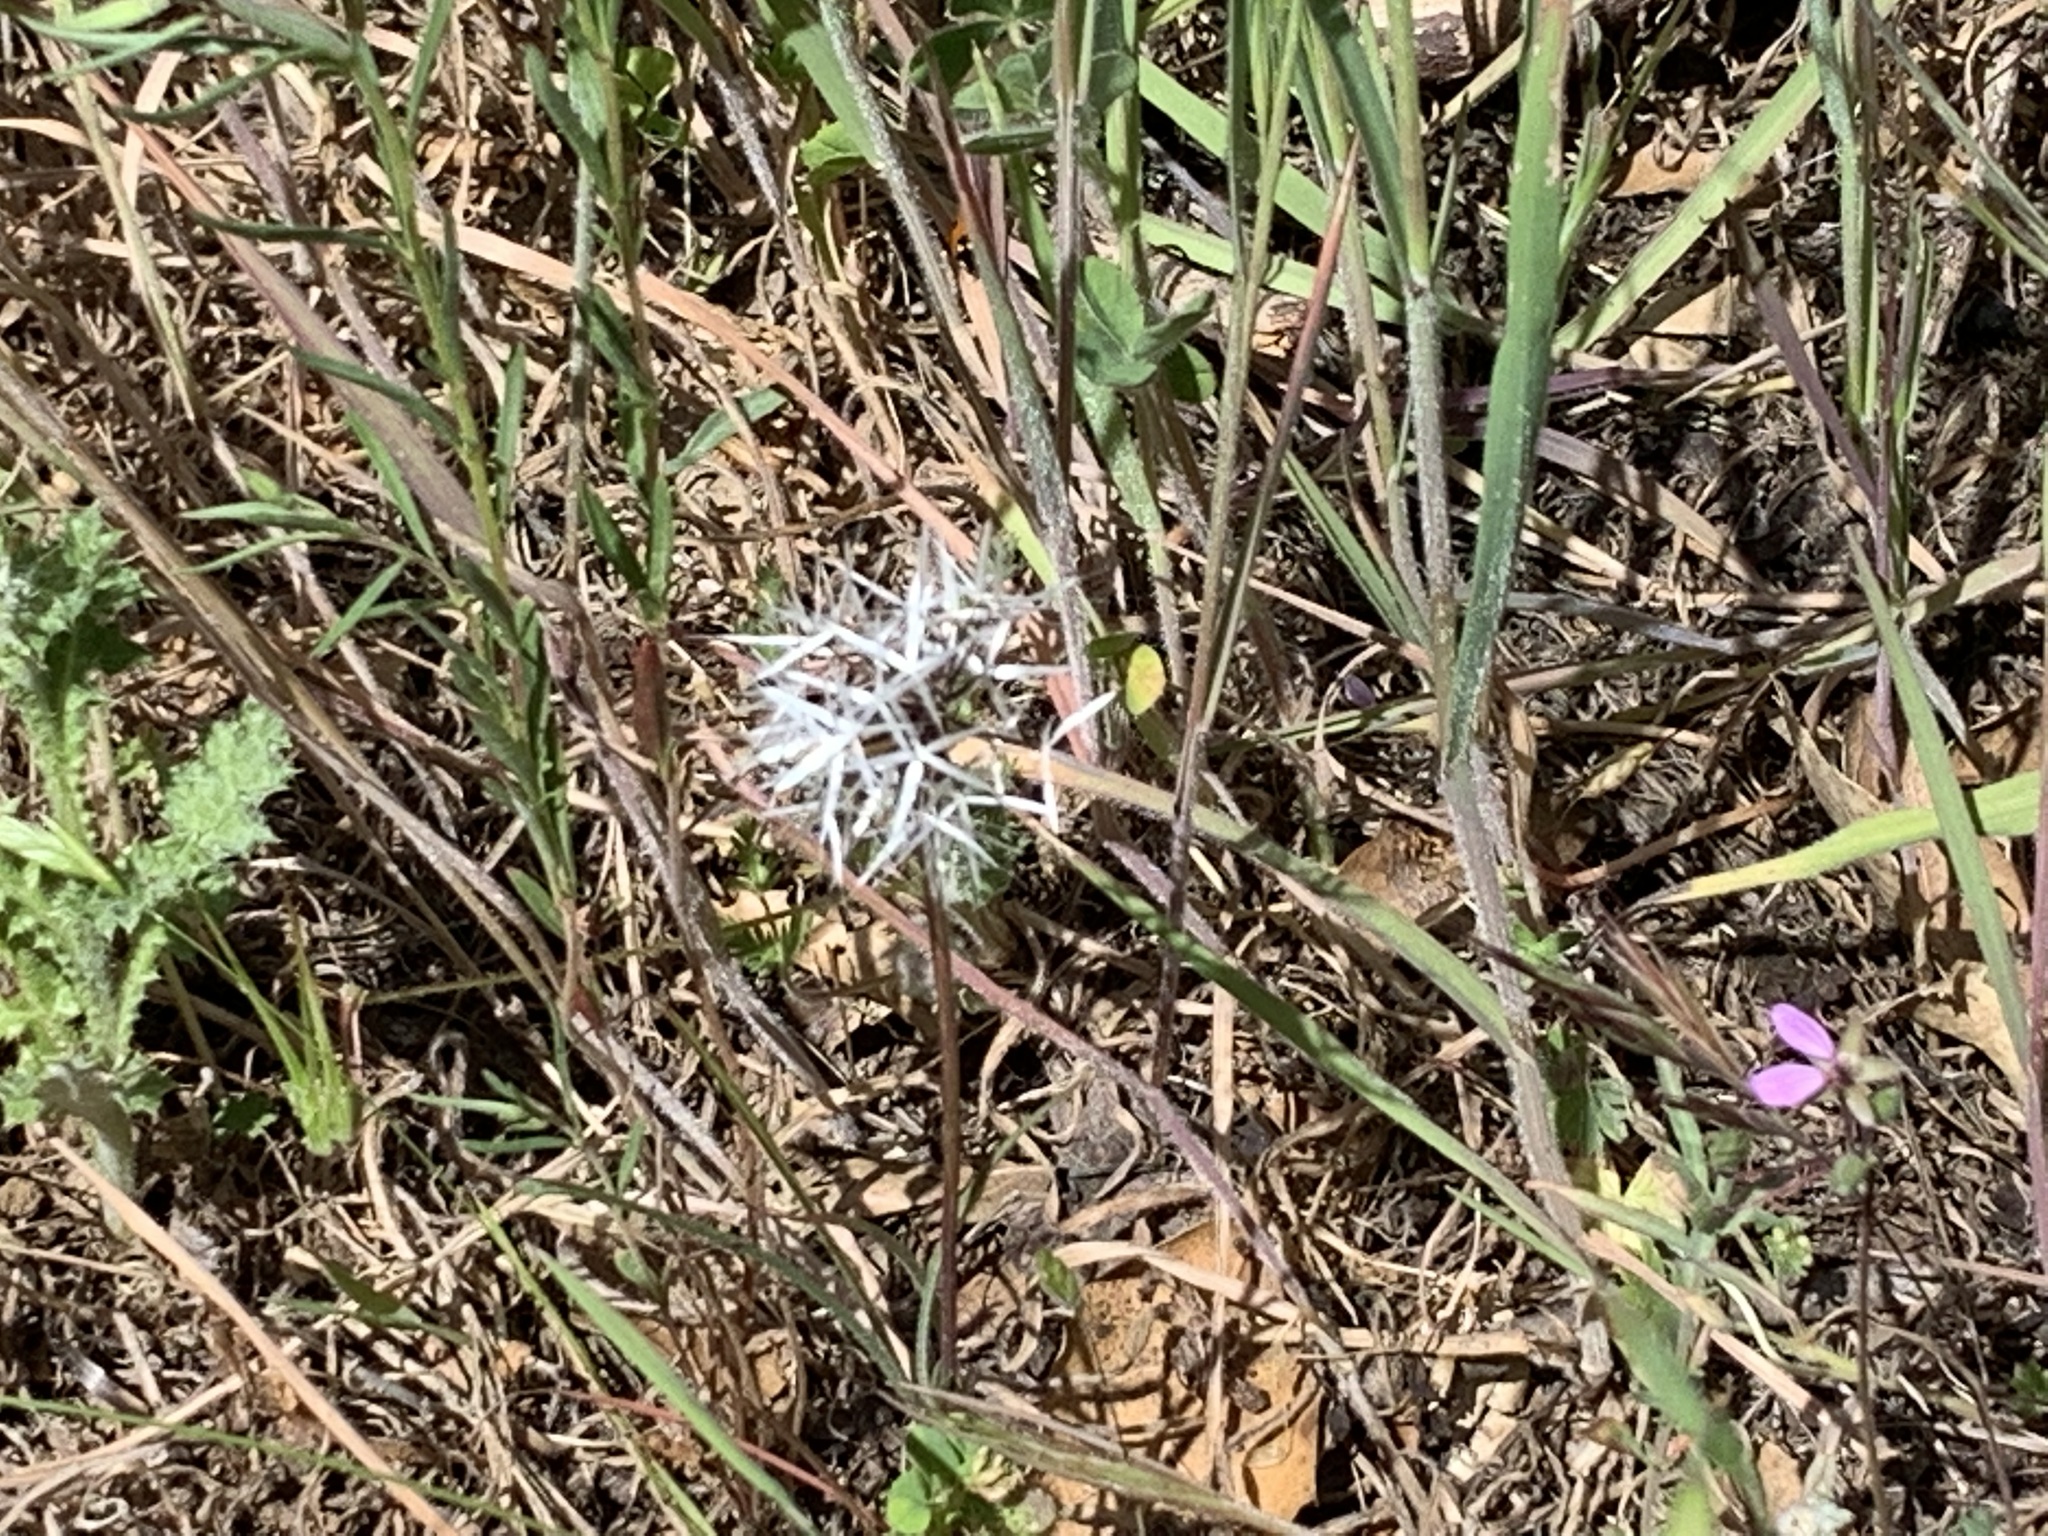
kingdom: Plantae
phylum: Tracheophyta
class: Magnoliopsida
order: Asterales
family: Asteraceae
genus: Microseris
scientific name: Microseris lindleyi
